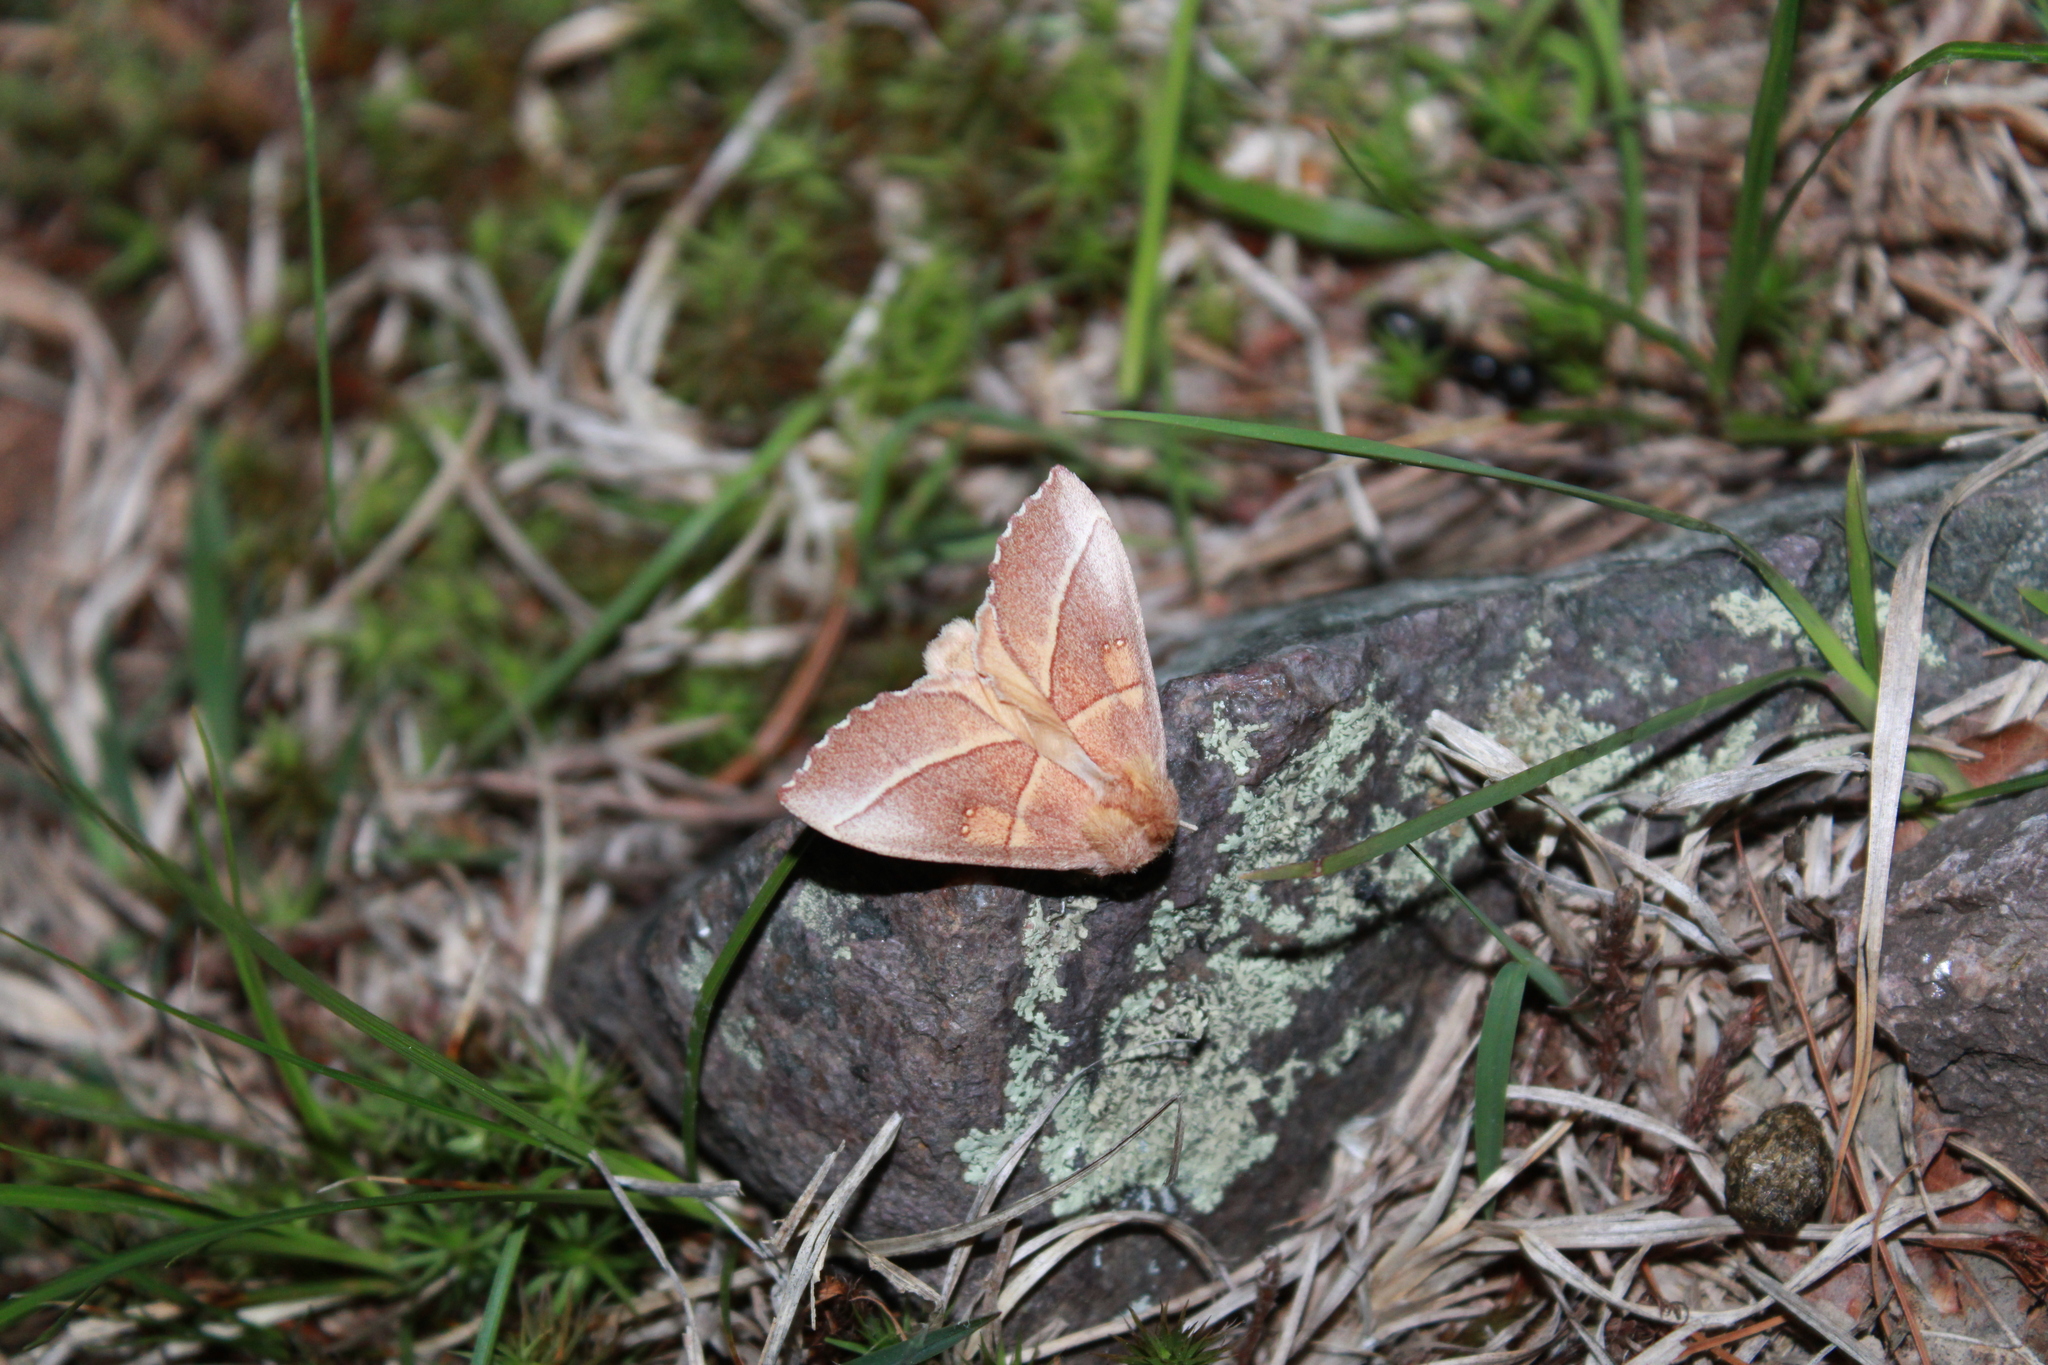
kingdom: Animalia
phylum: Arthropoda
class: Insecta
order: Lepidoptera
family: Notodontidae
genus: Nadata
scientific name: Nadata gibbosa
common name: White-dotted prominent
